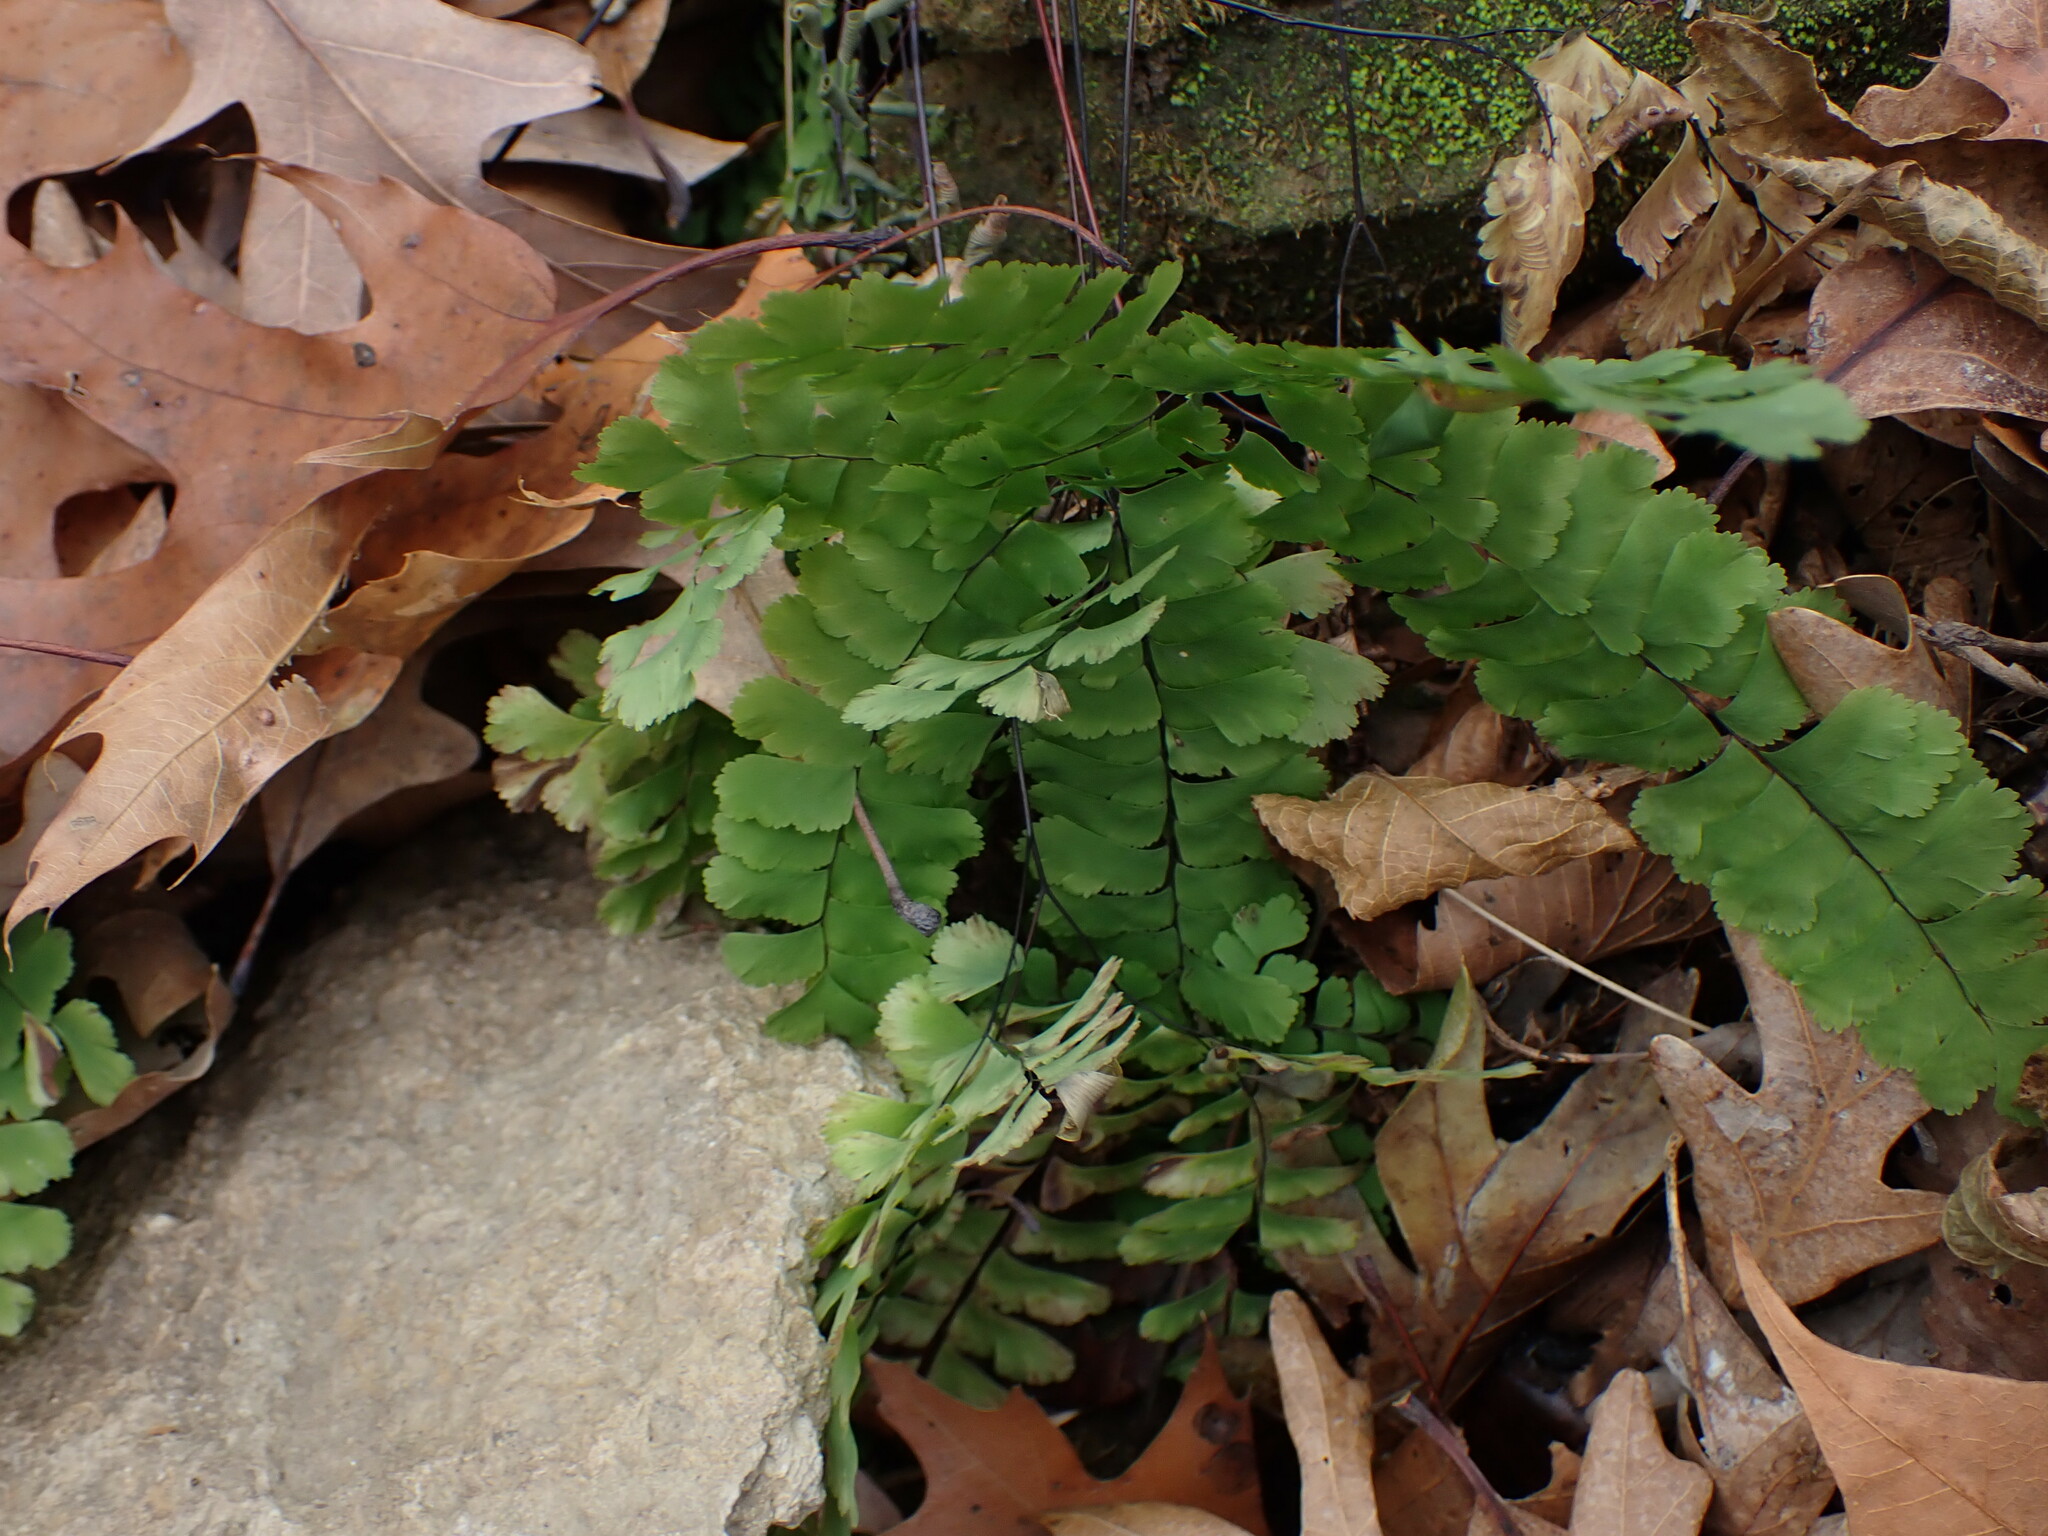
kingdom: Plantae
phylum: Tracheophyta
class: Polypodiopsida
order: Polypodiales
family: Pteridaceae
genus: Adiantum
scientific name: Adiantum pedatum
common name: Five-finger fern
